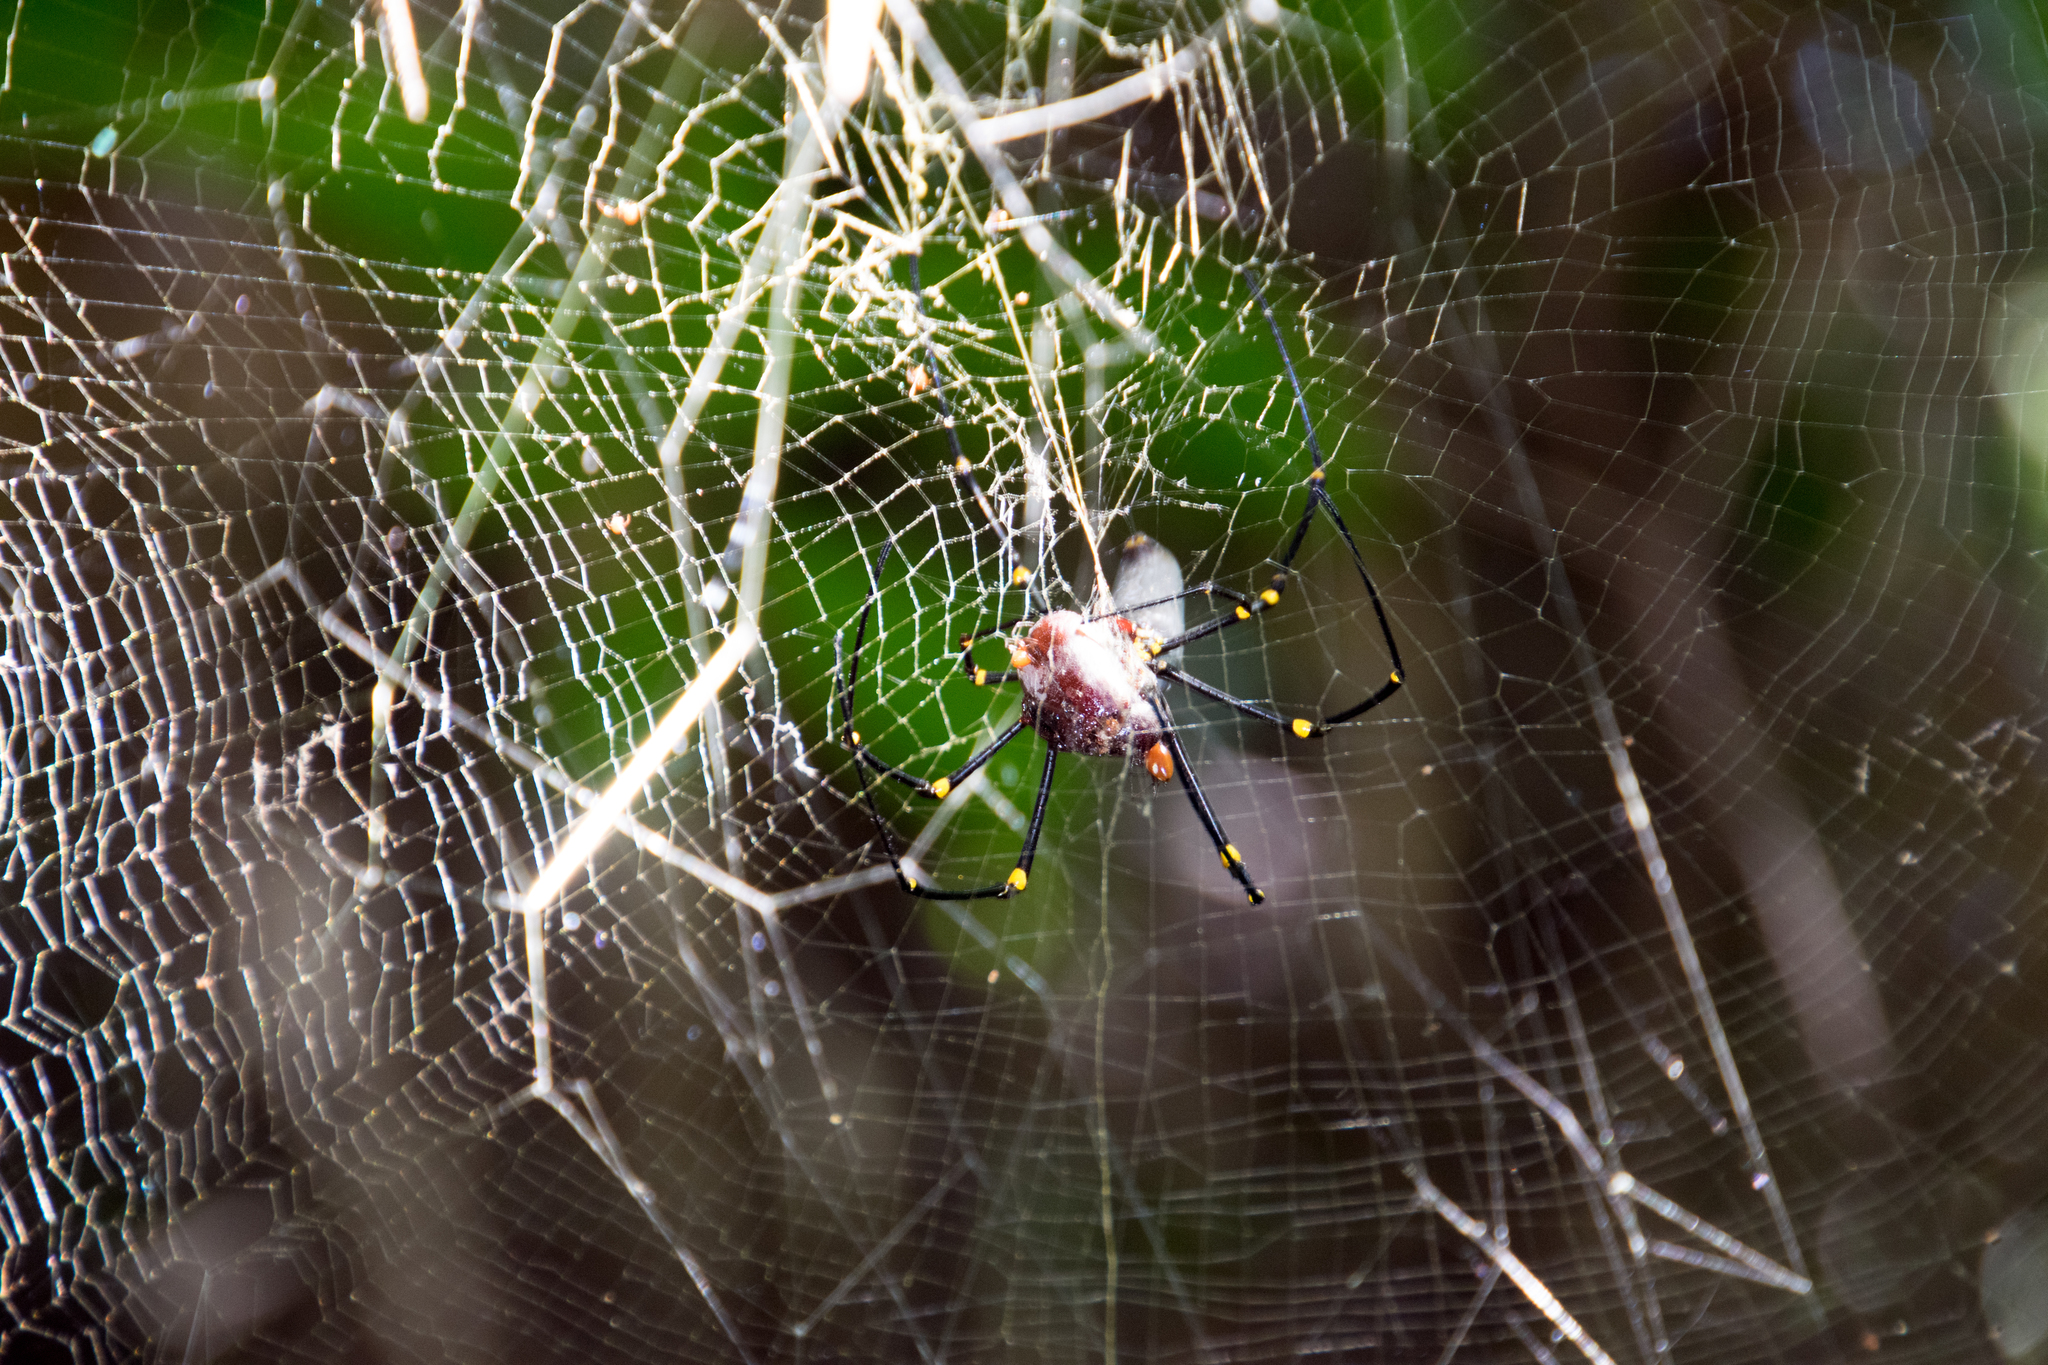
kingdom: Animalia
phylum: Arthropoda
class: Arachnida
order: Araneae
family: Araneidae
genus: Nephila
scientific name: Nephila pilipes
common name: Giant golden orb weaver
